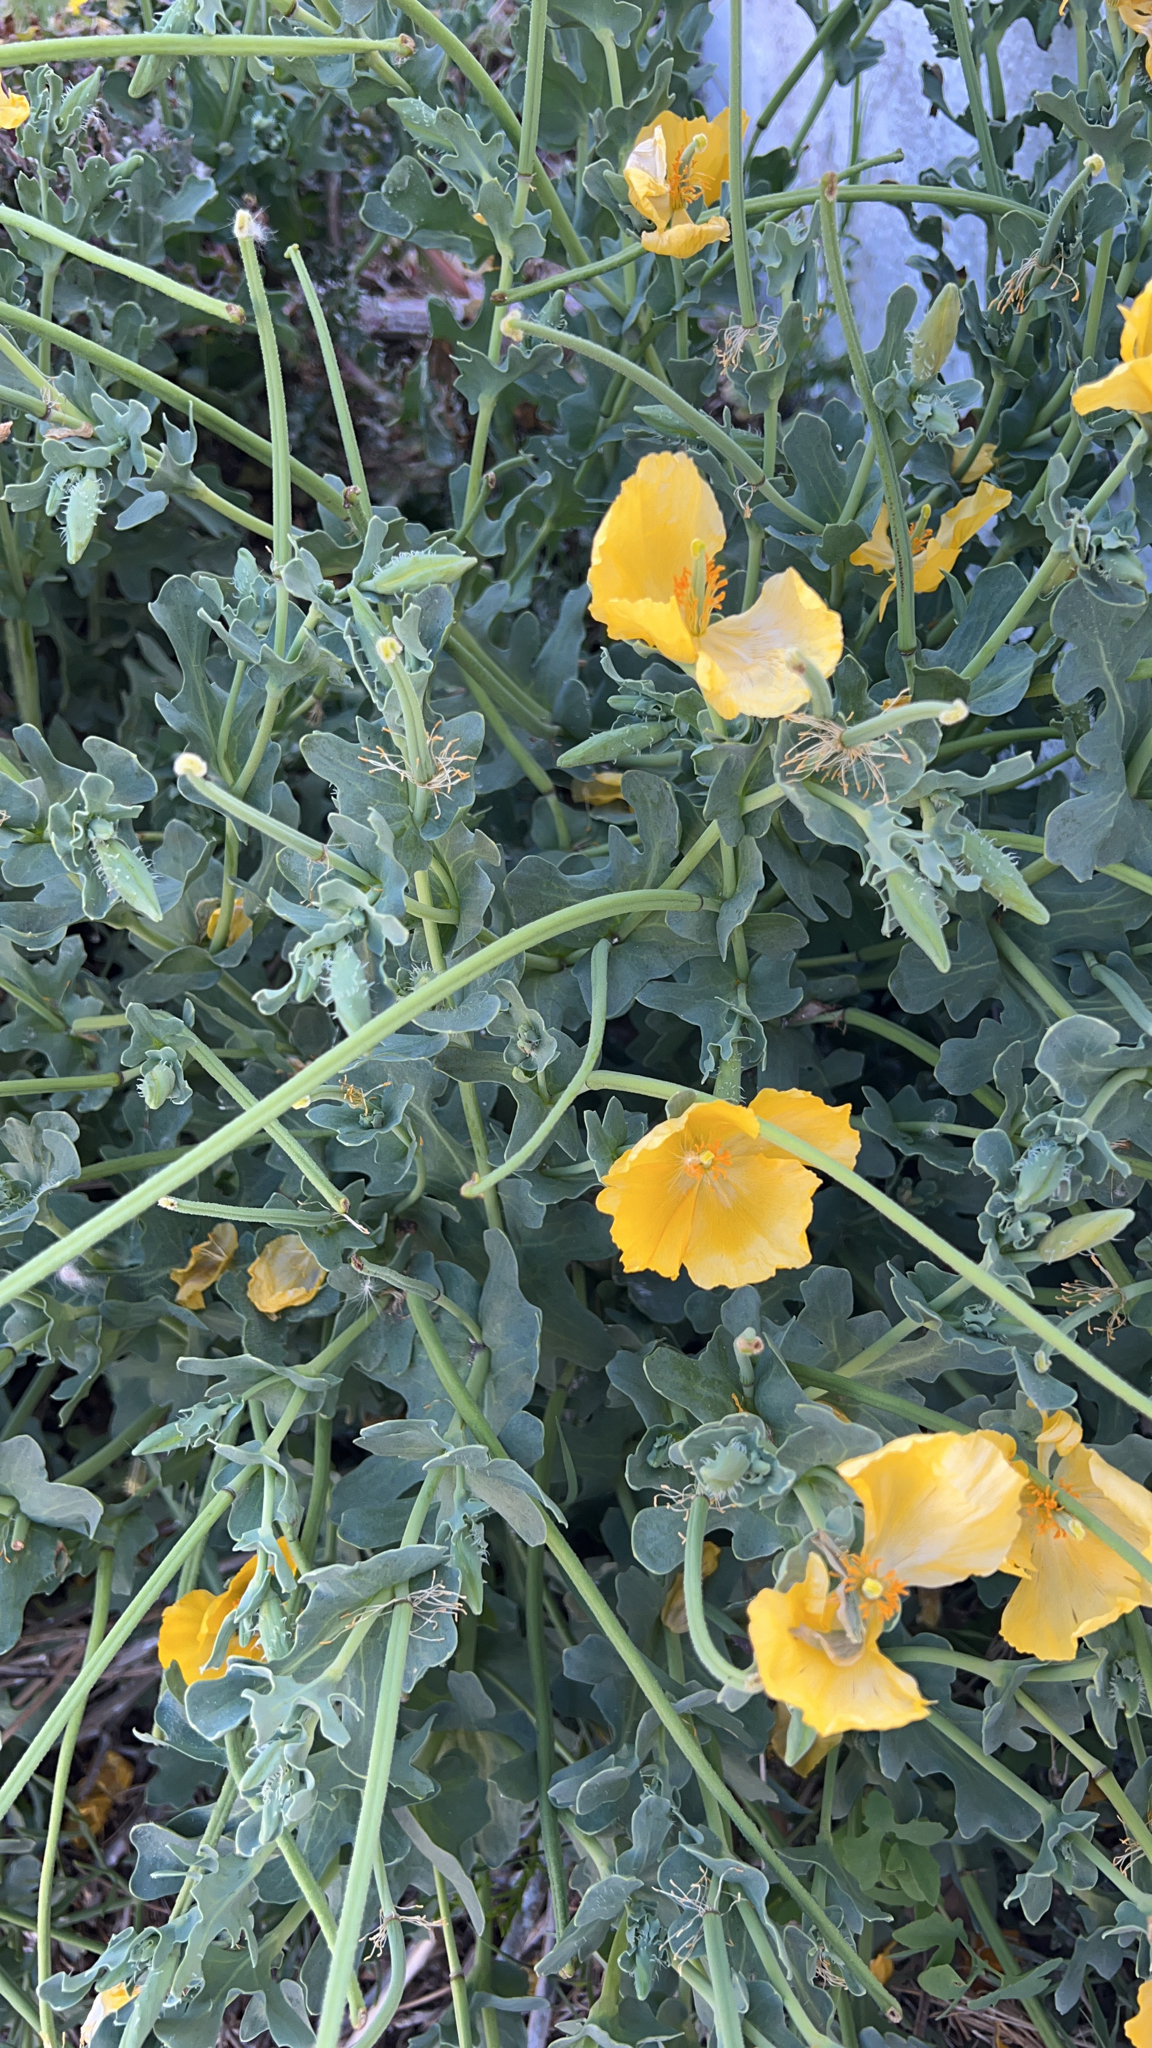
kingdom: Plantae
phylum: Tracheophyta
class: Magnoliopsida
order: Ranunculales
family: Papaveraceae
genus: Glaucium
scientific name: Glaucium flavum
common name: Yellow horned-poppy
